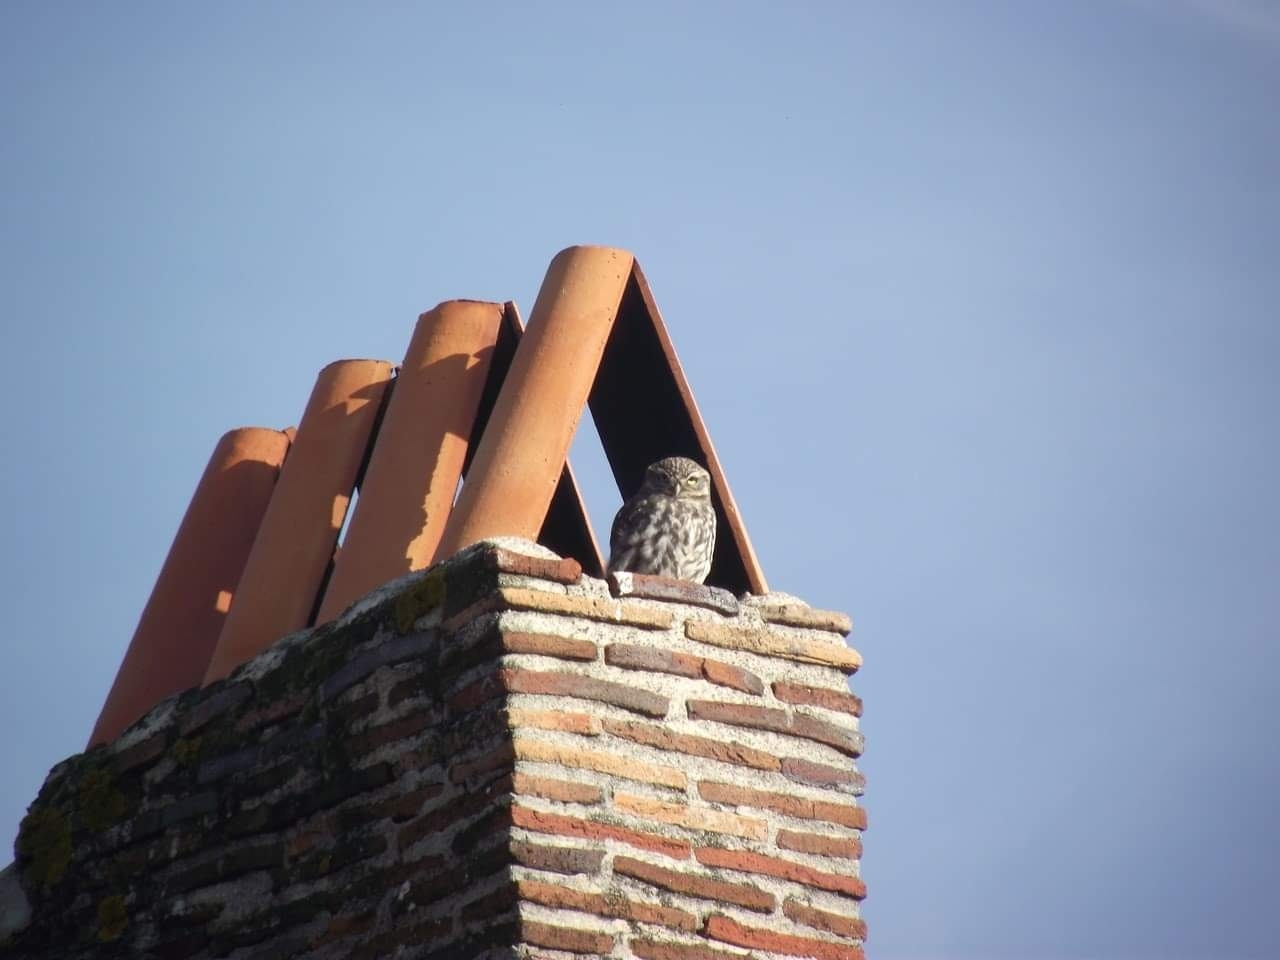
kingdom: Animalia
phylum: Chordata
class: Aves
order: Strigiformes
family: Strigidae
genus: Athene
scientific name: Athene noctua
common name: Little owl
